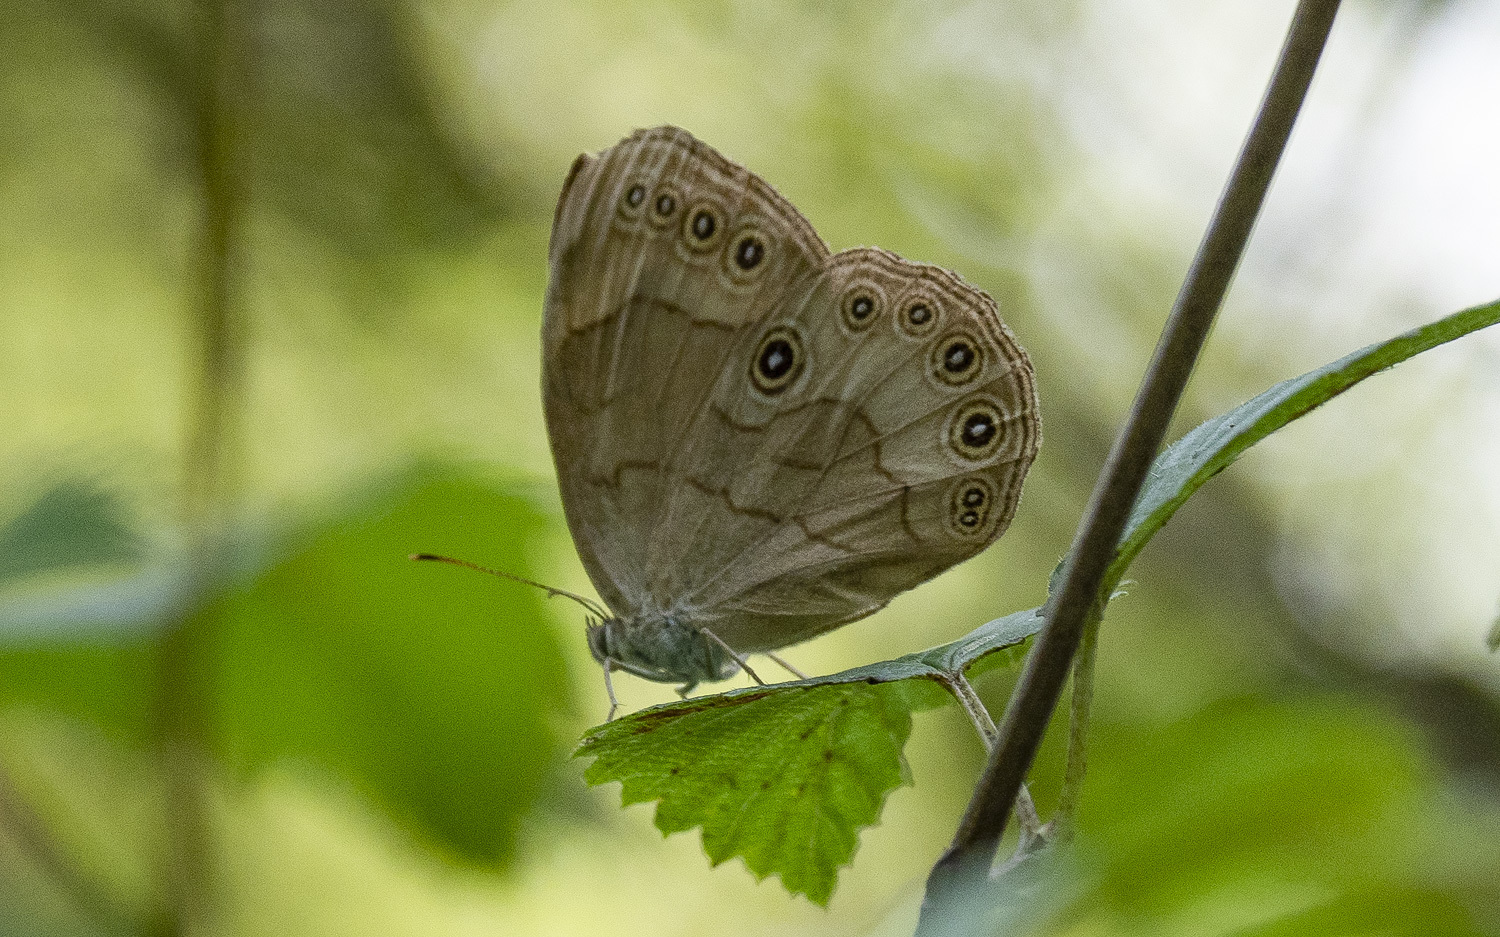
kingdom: Animalia
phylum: Arthropoda
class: Insecta
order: Lepidoptera
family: Nymphalidae
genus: Lethe
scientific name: Lethe eurydice
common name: Eyed brown
